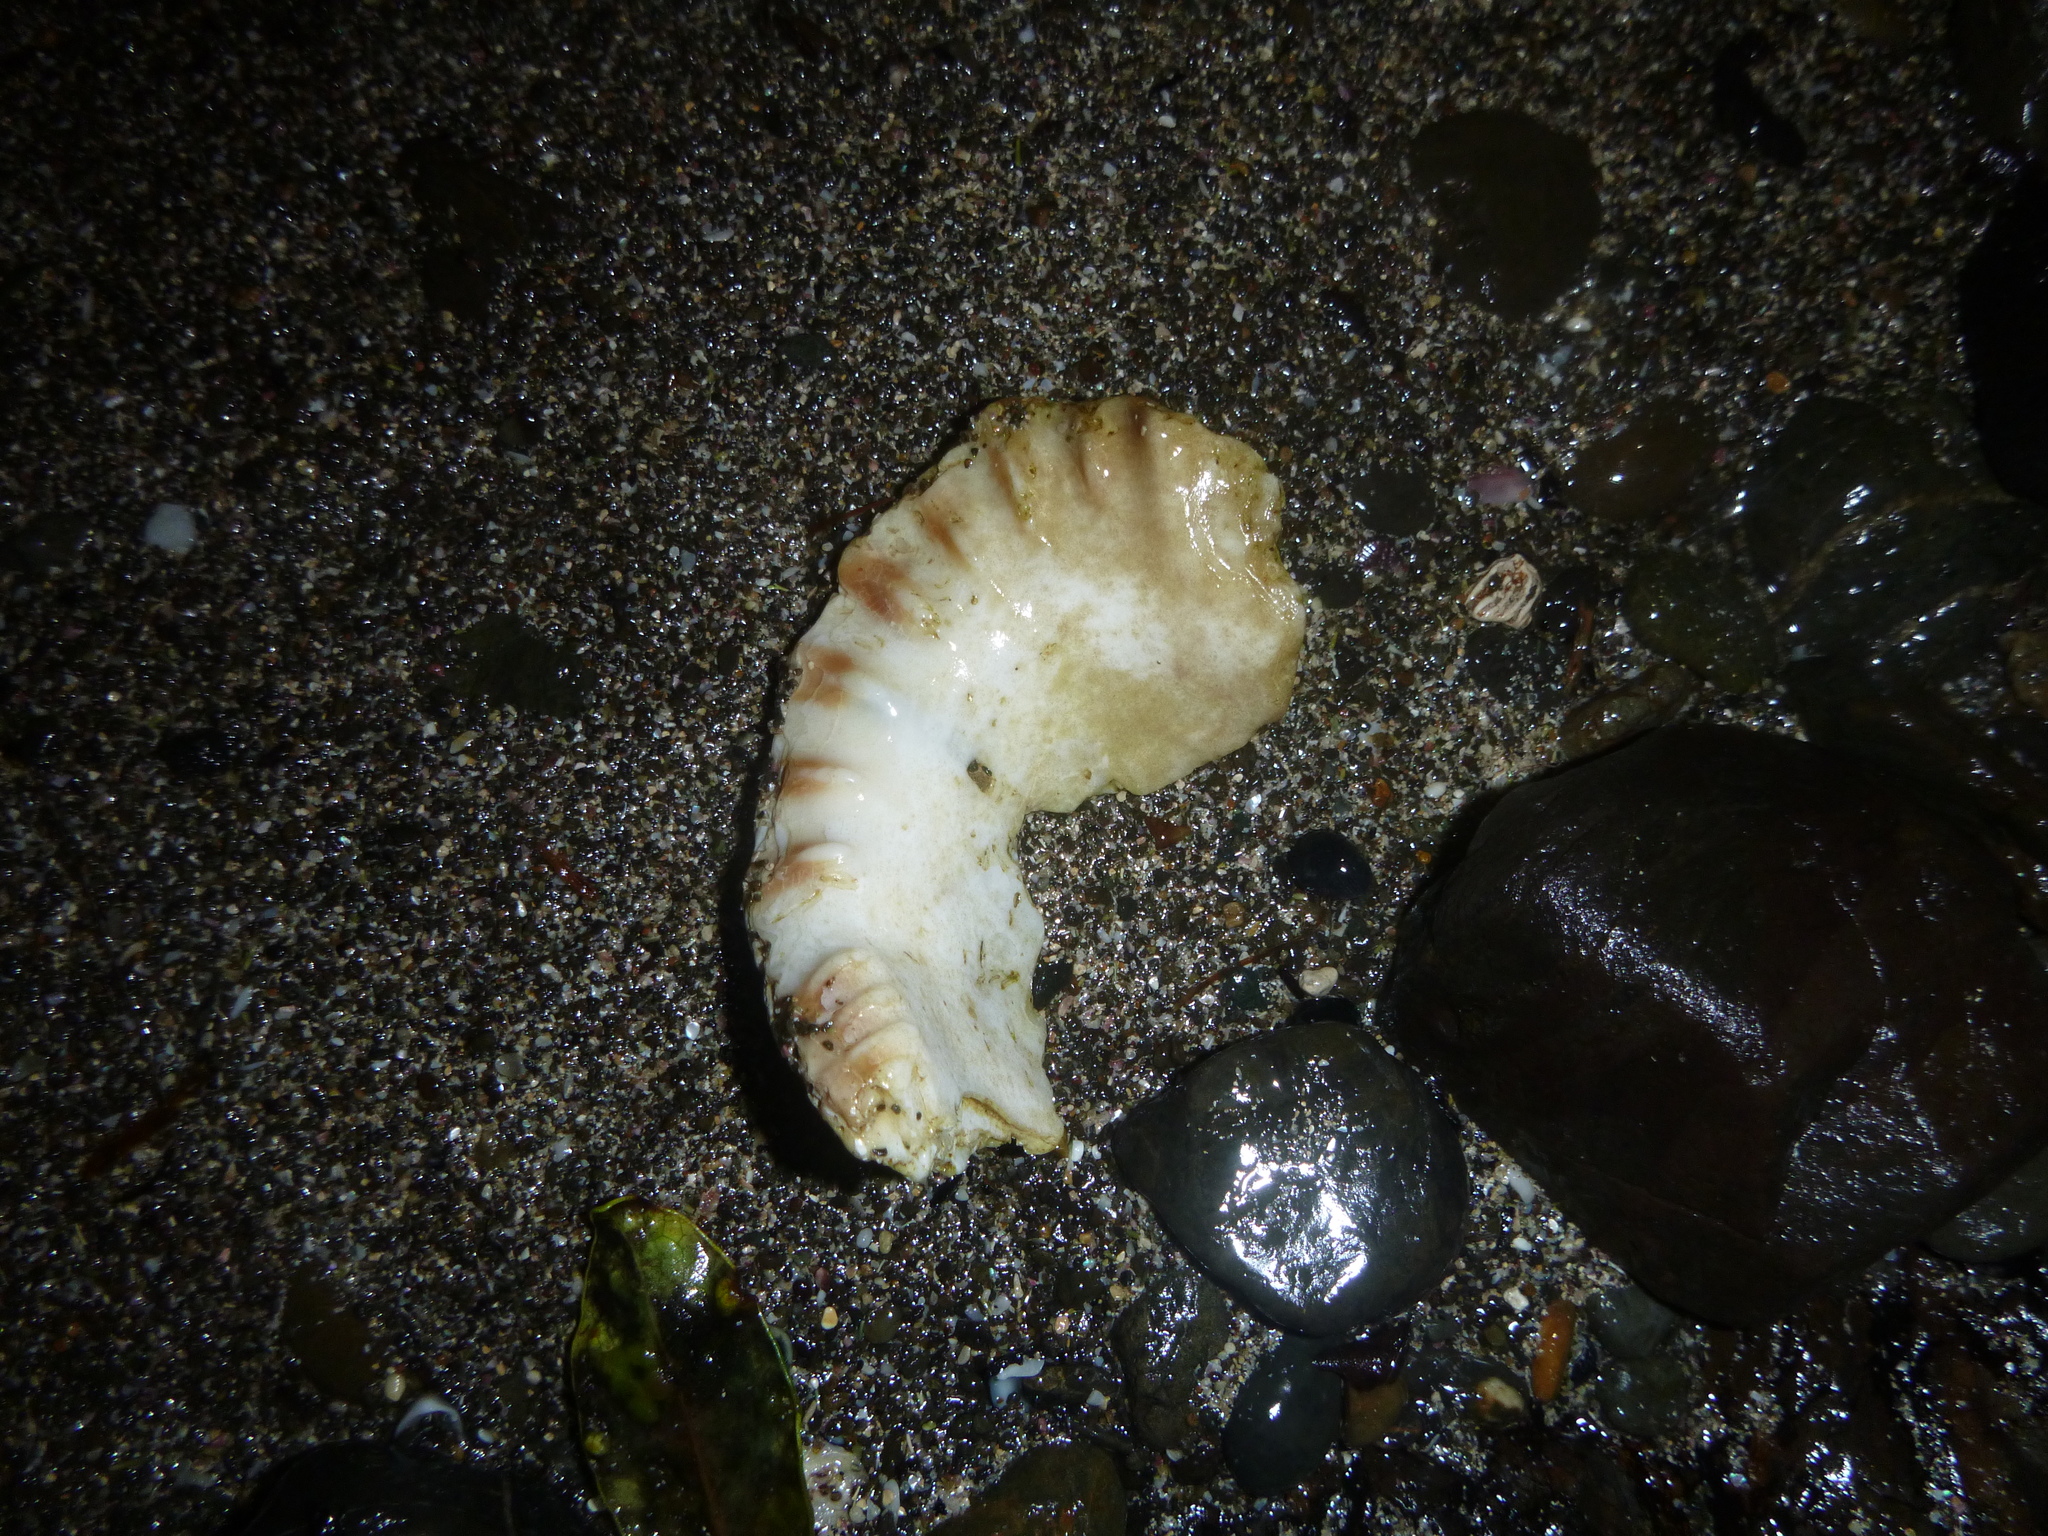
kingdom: Animalia
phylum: Mollusca
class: Gastropoda
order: Littorinimorpha
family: Charoniidae
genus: Charonia
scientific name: Charonia lampas
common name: Knobbed triton
